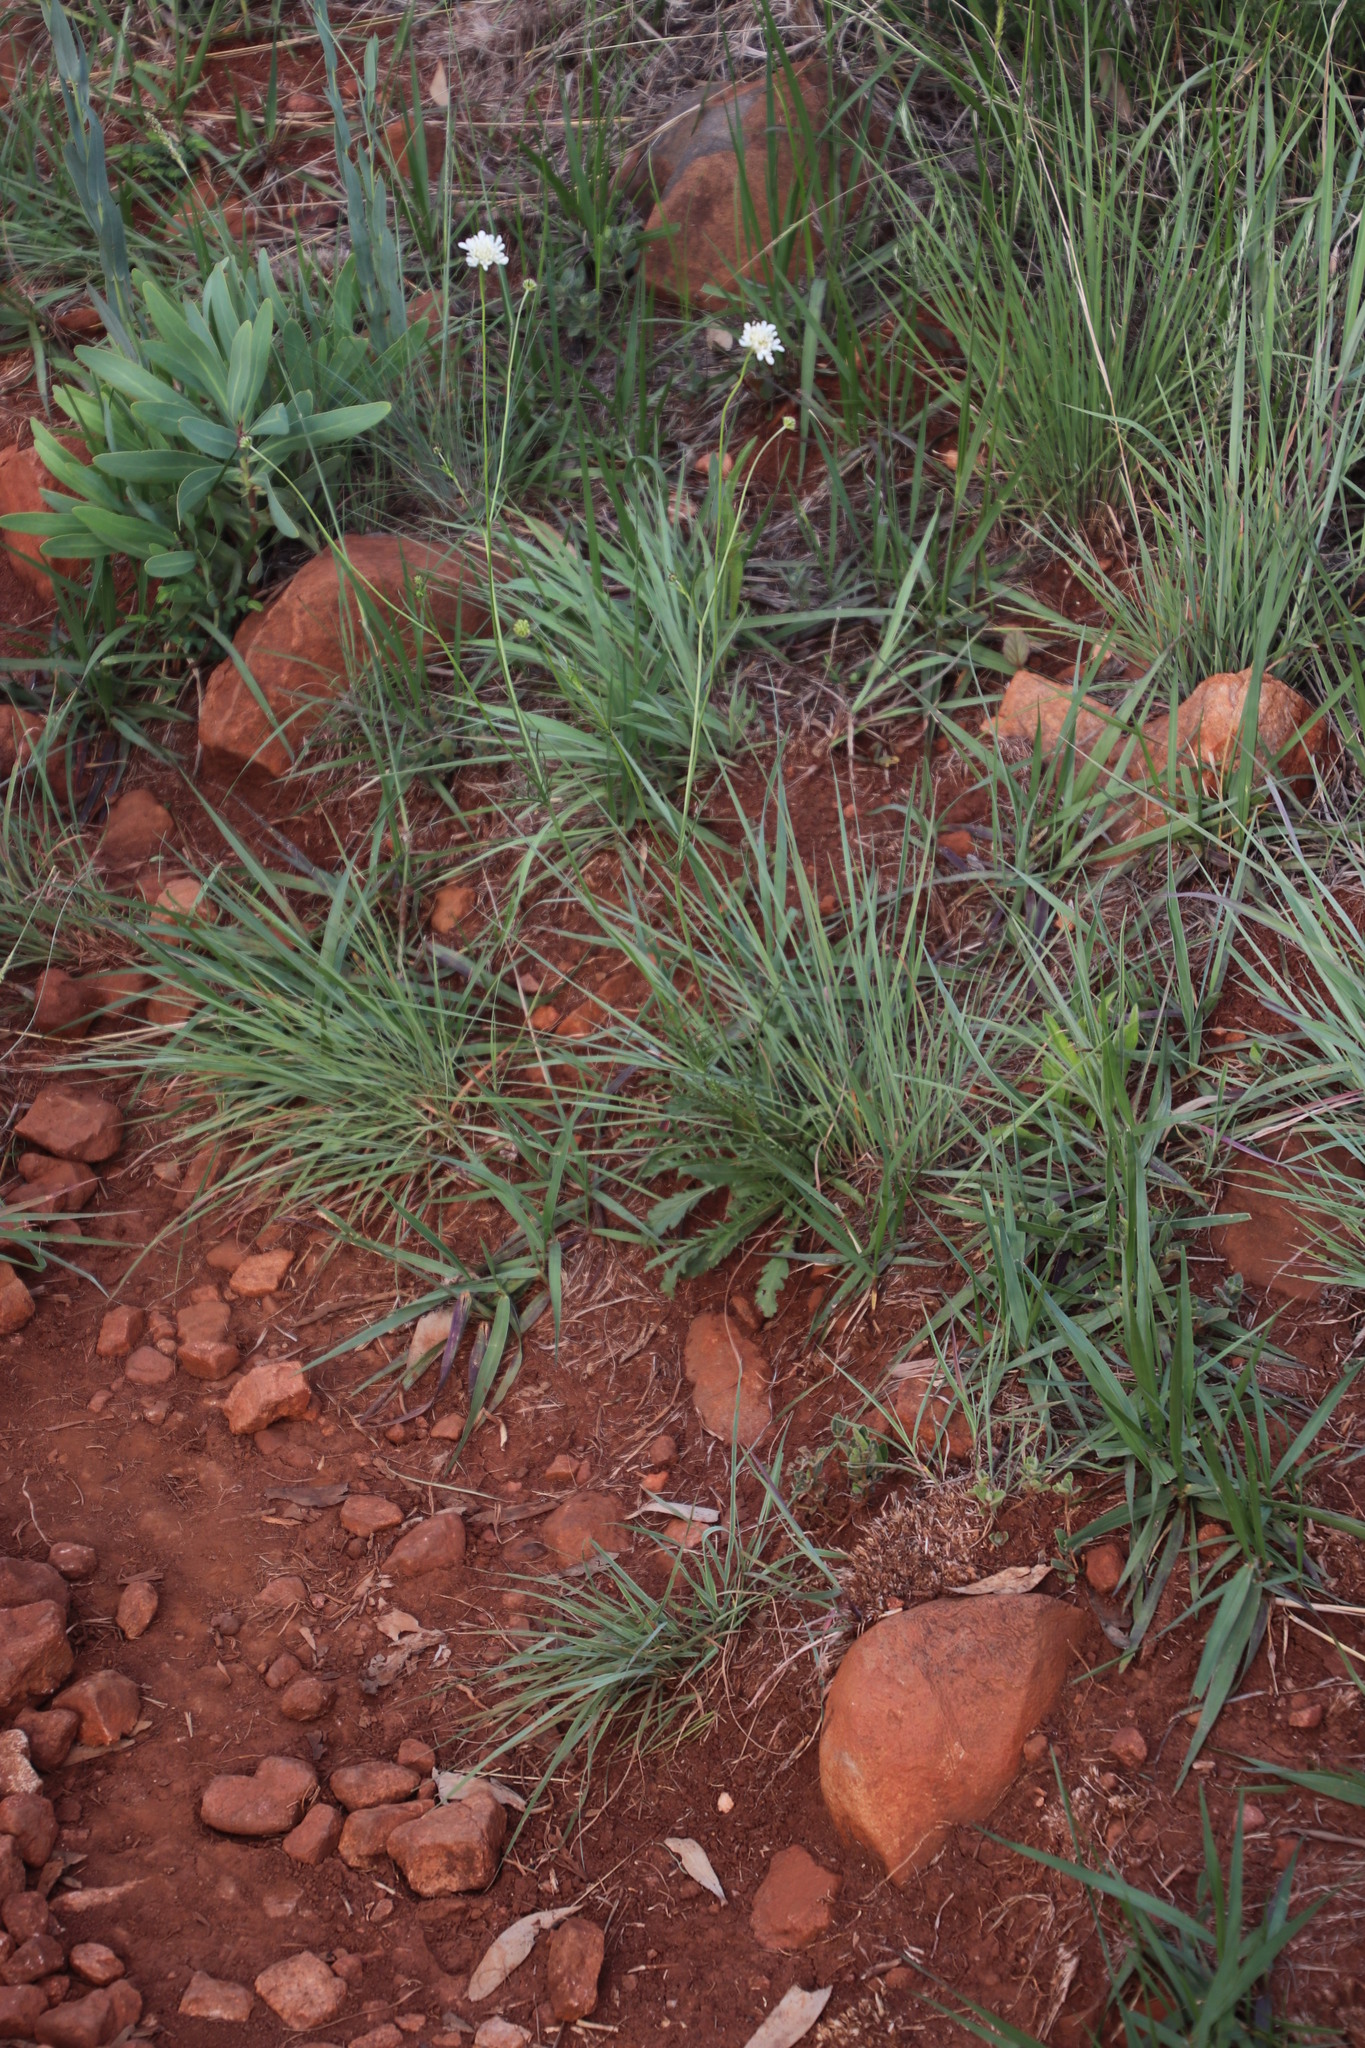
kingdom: Plantae
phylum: Tracheophyta
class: Magnoliopsida
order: Dipsacales
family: Caprifoliaceae
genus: Scabiosa
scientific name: Scabiosa columbaria
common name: Small scabious
